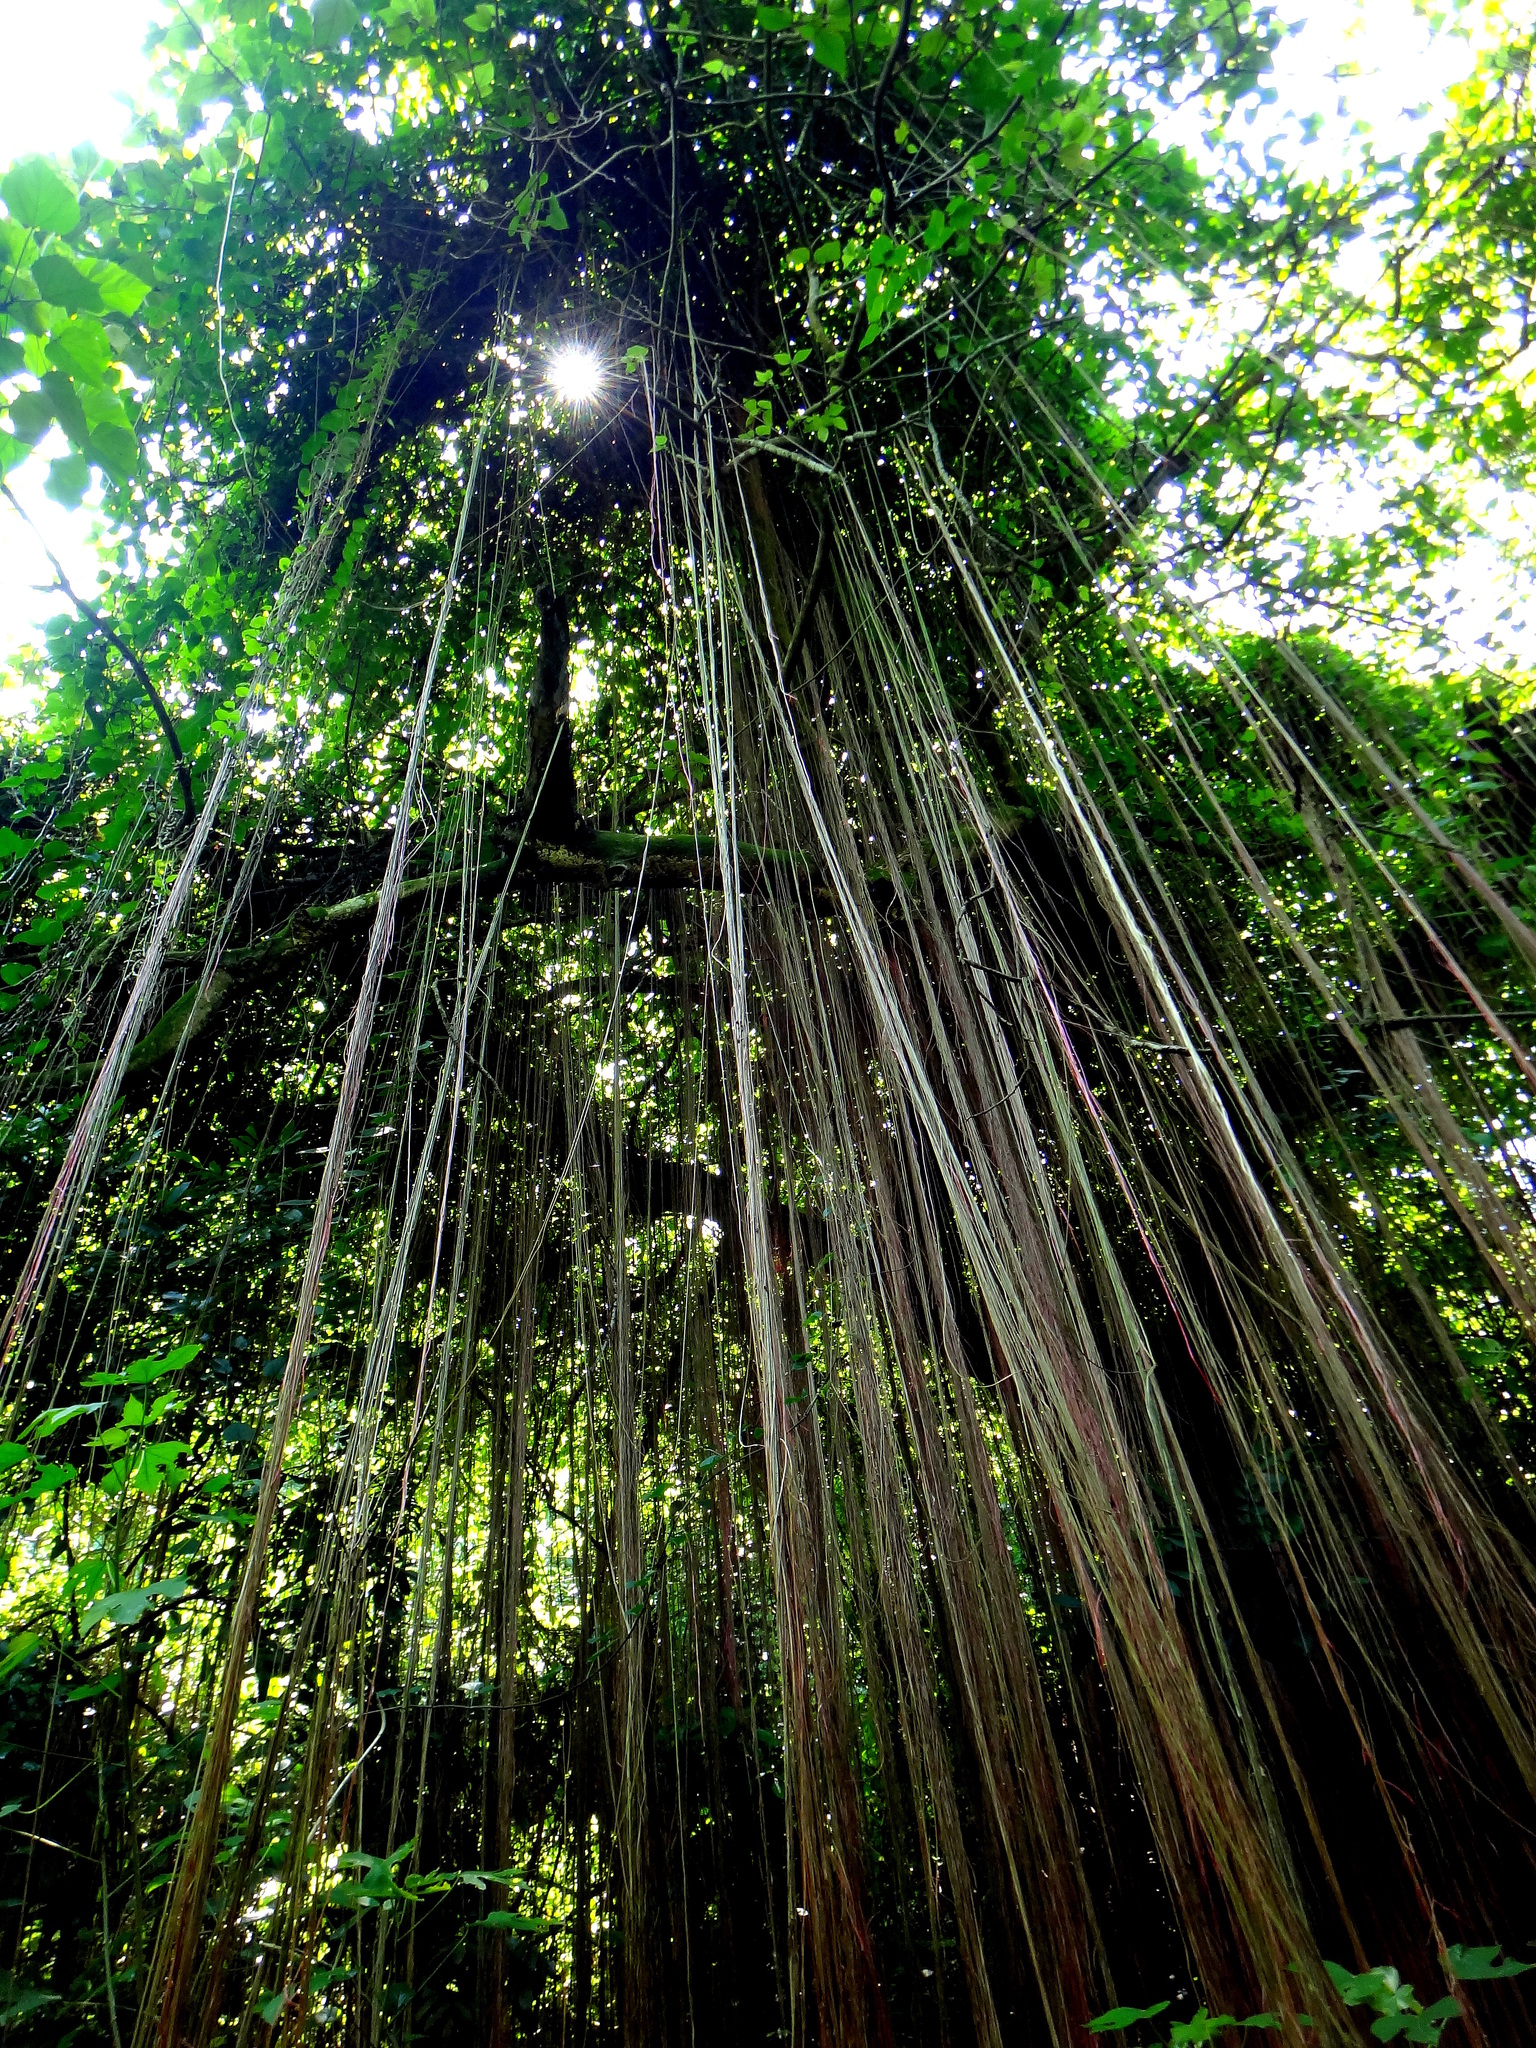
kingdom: Plantae
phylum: Tracheophyta
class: Magnoliopsida
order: Vitales
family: Vitaceae
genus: Cissus
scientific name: Cissus verticillata
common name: Princess vine
